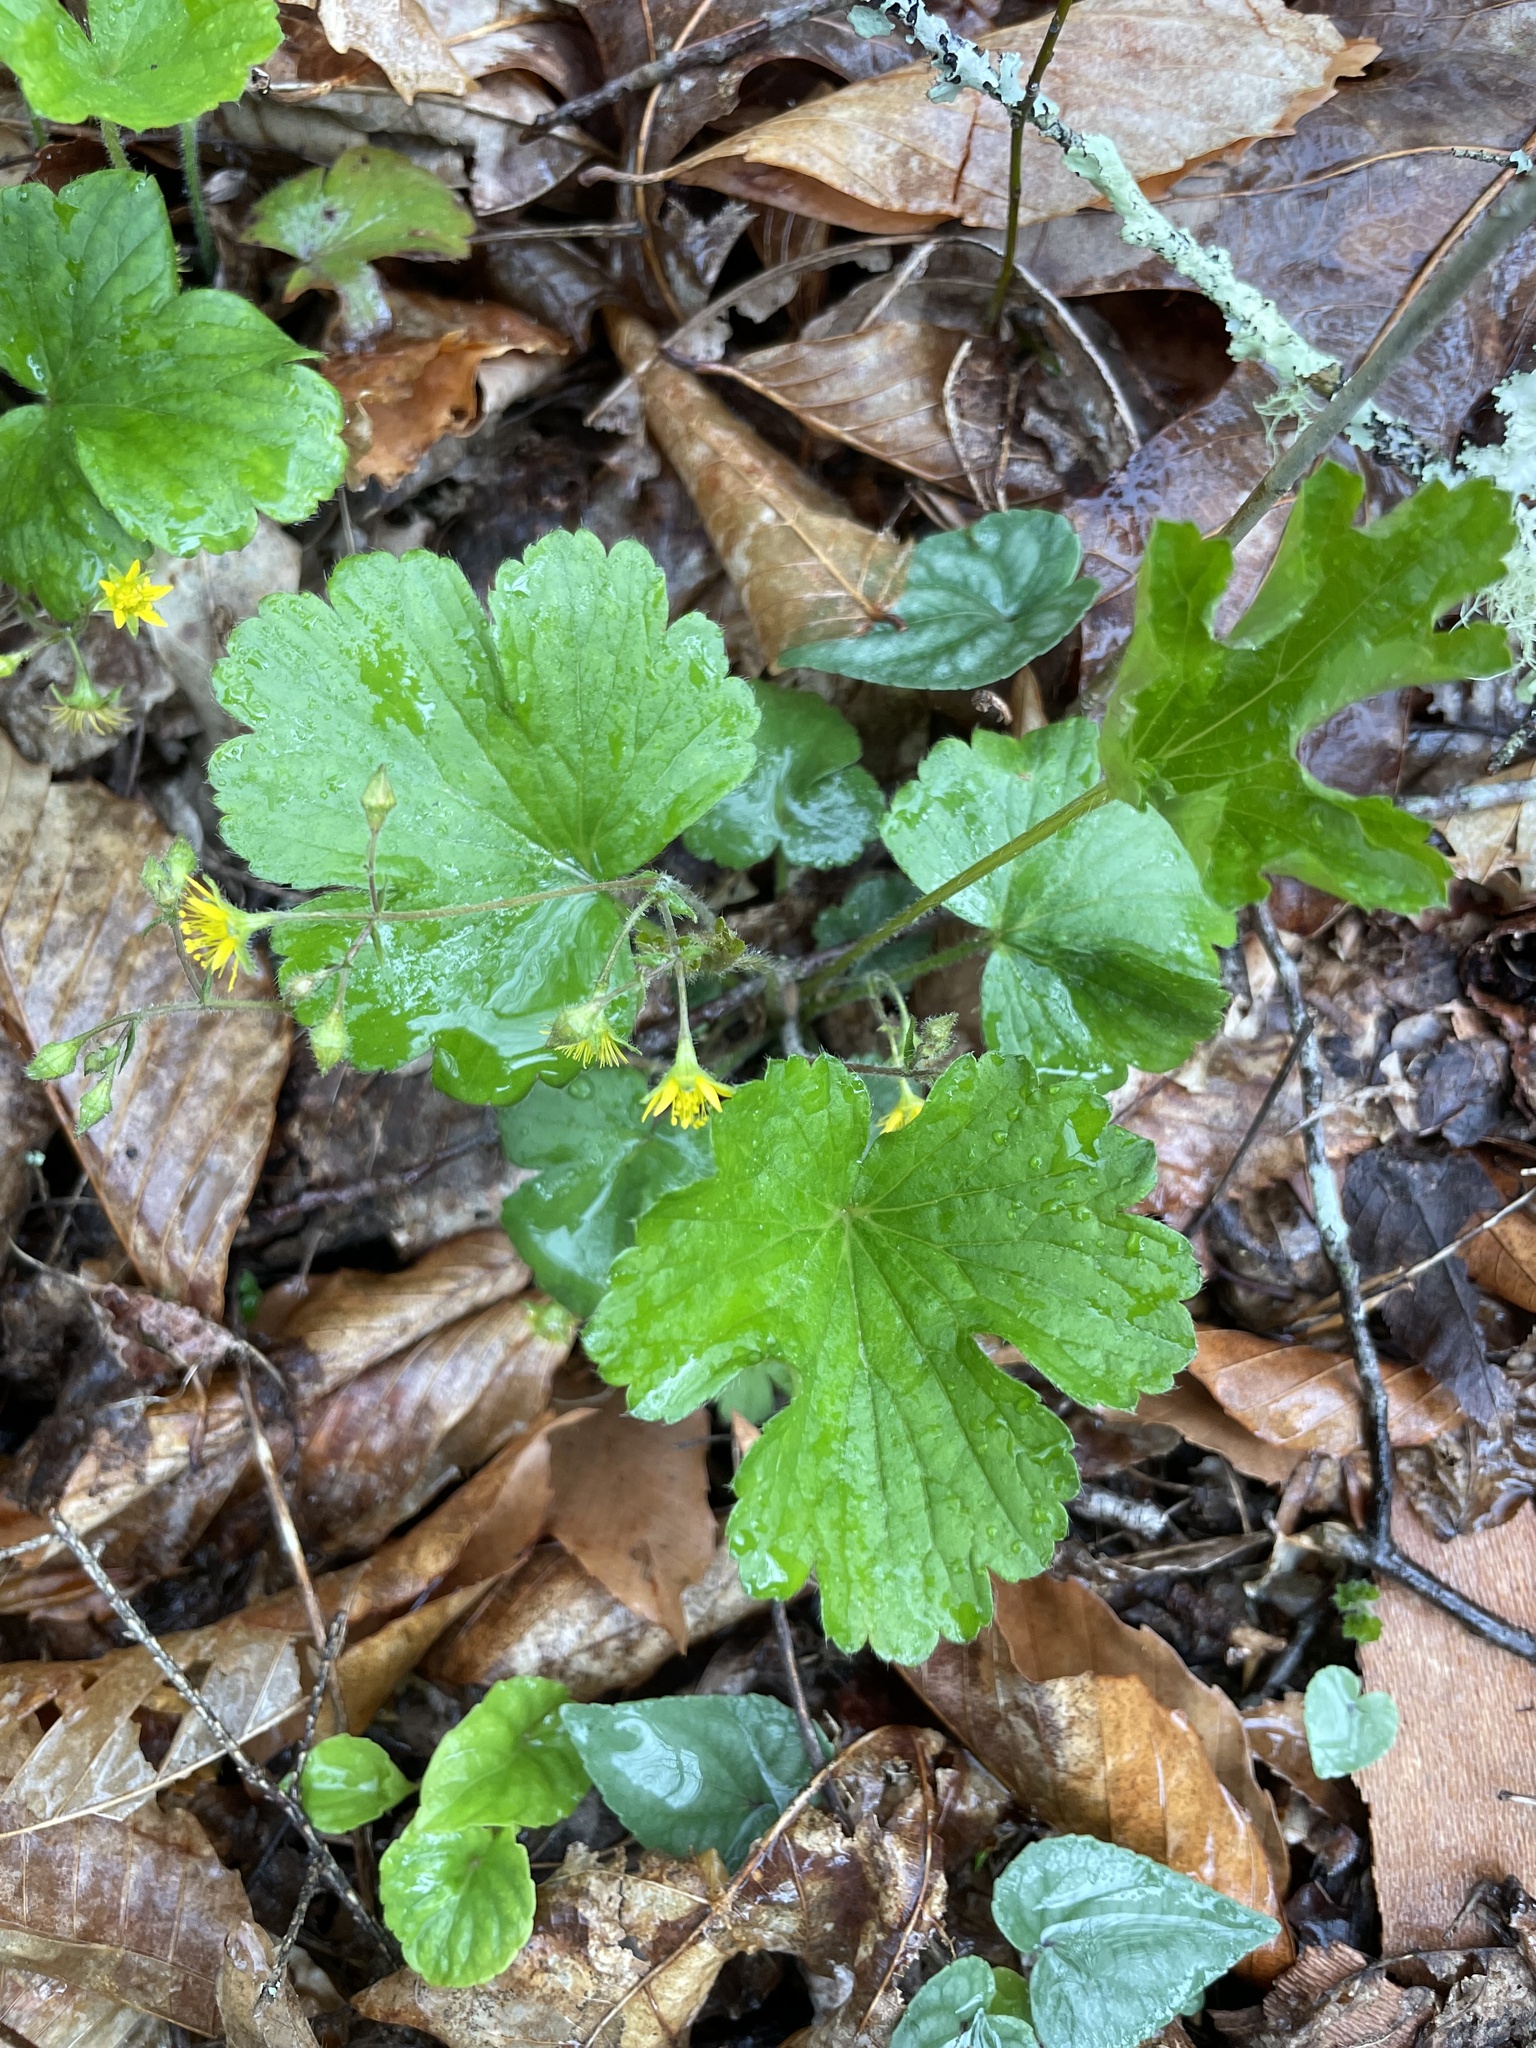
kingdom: Plantae
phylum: Tracheophyta
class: Magnoliopsida
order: Rosales
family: Rosaceae
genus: Geum
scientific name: Geum lobatum
